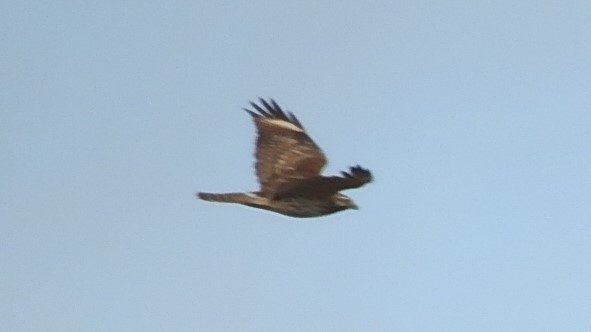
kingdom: Animalia
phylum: Chordata
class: Aves
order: Accipitriformes
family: Accipitridae
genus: Buteo
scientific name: Buteo lineatus
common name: Red-shouldered hawk
